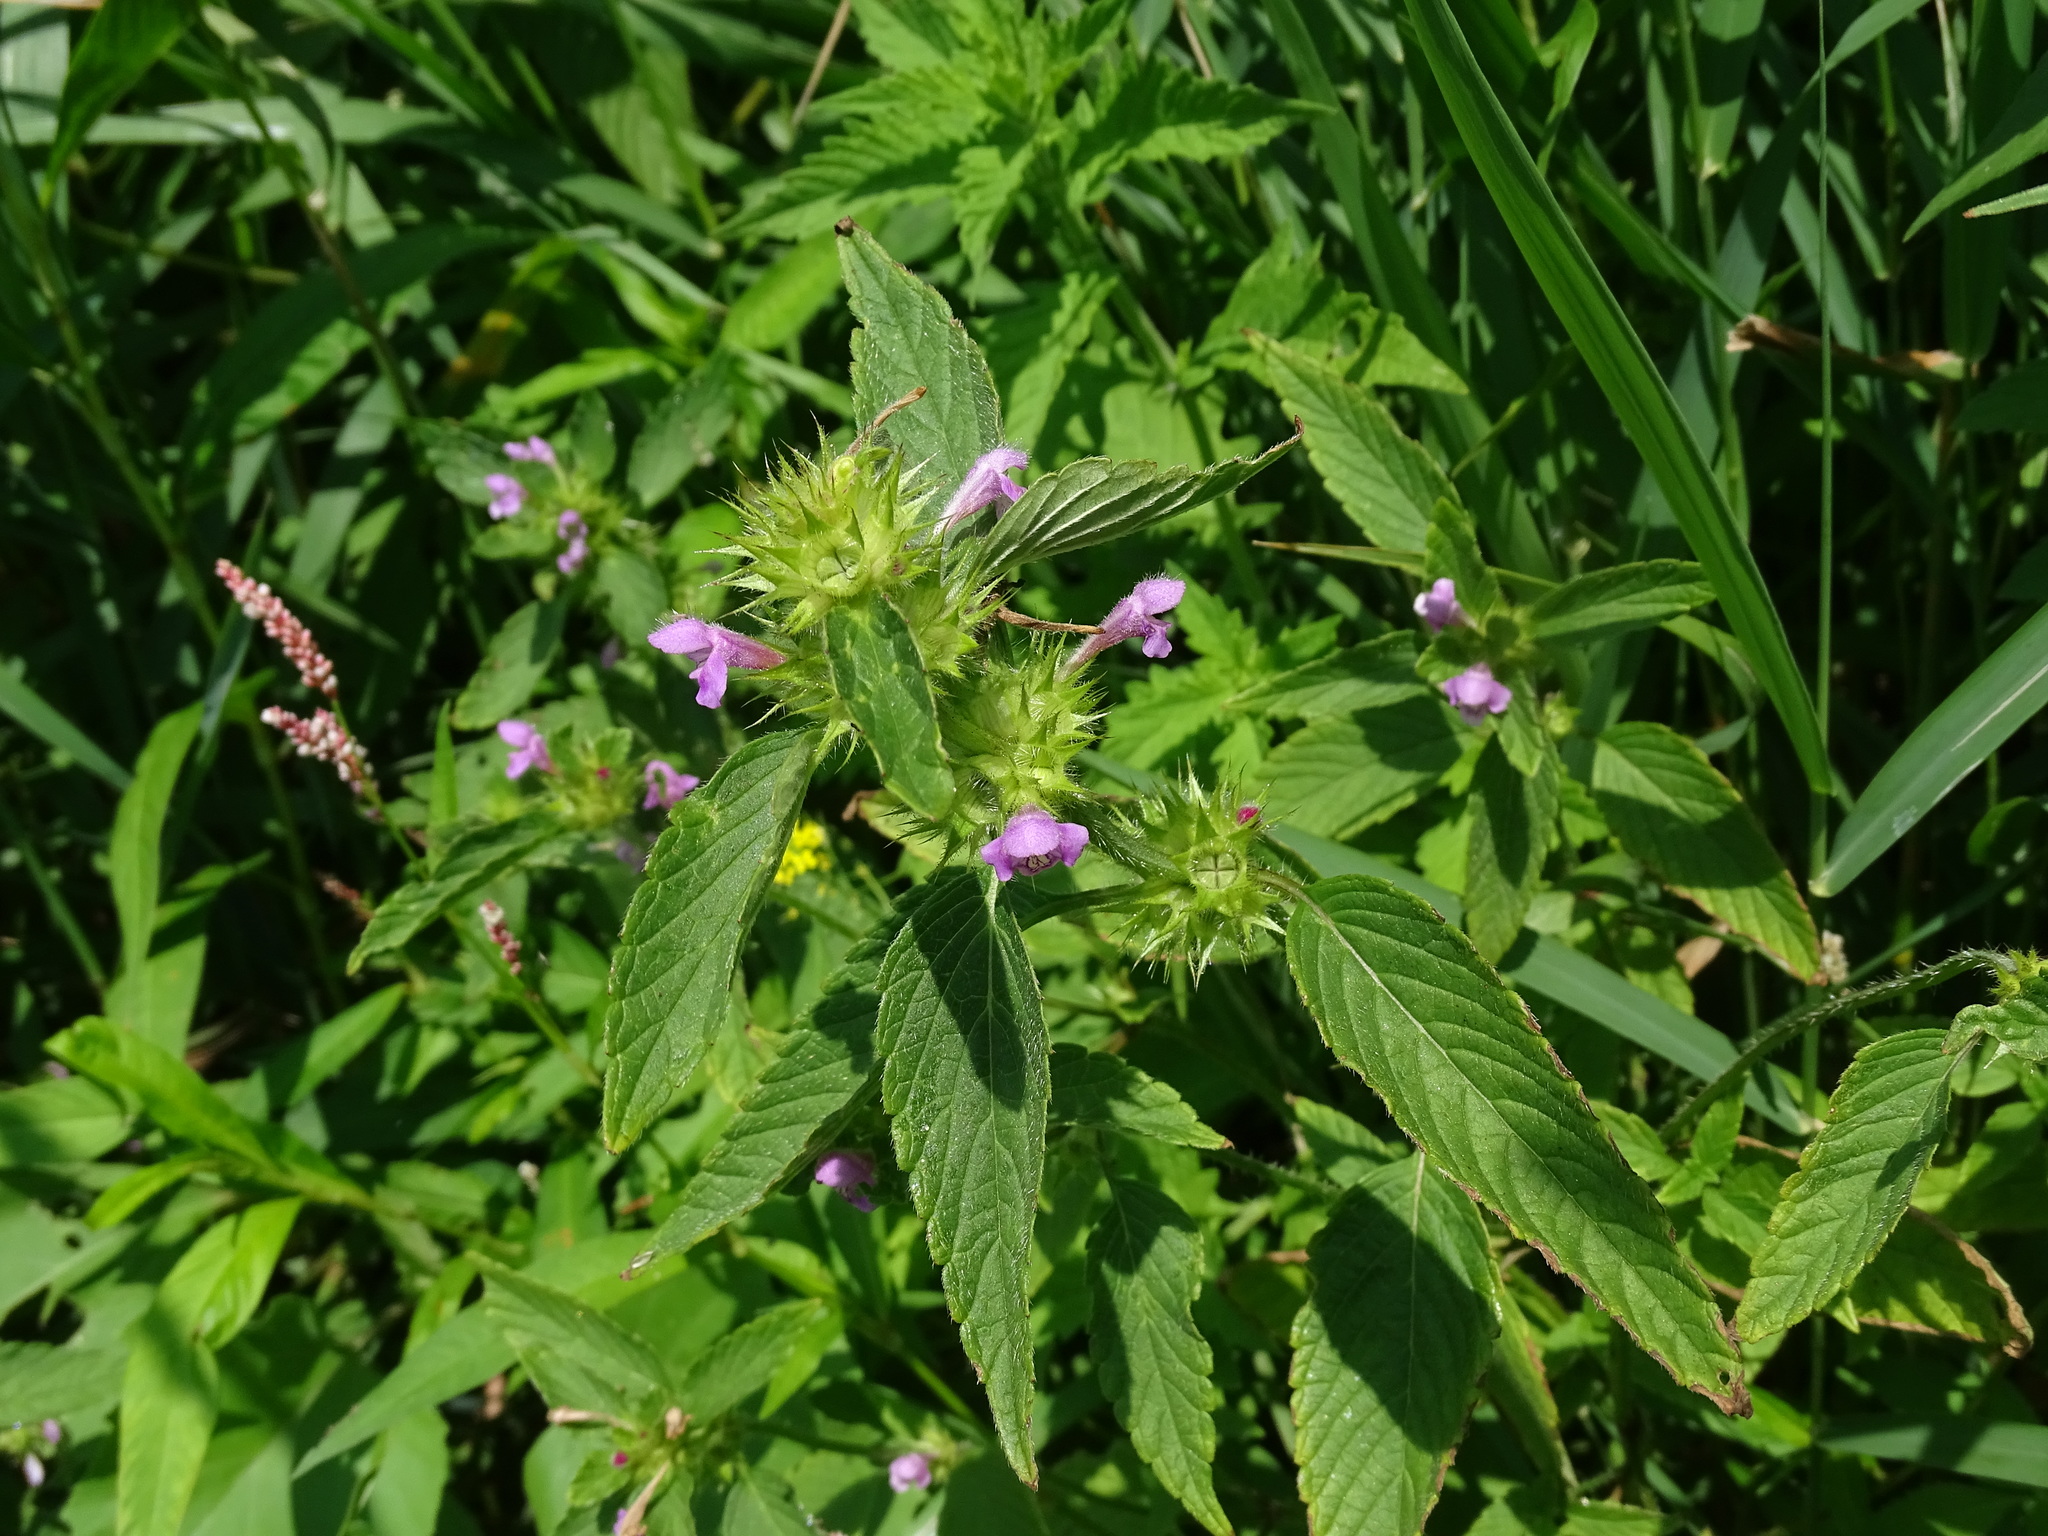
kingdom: Plantae
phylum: Tracheophyta
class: Magnoliopsida
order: Lamiales
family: Lamiaceae
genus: Galeopsis
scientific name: Galeopsis tetrahit
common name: Common hemp-nettle
